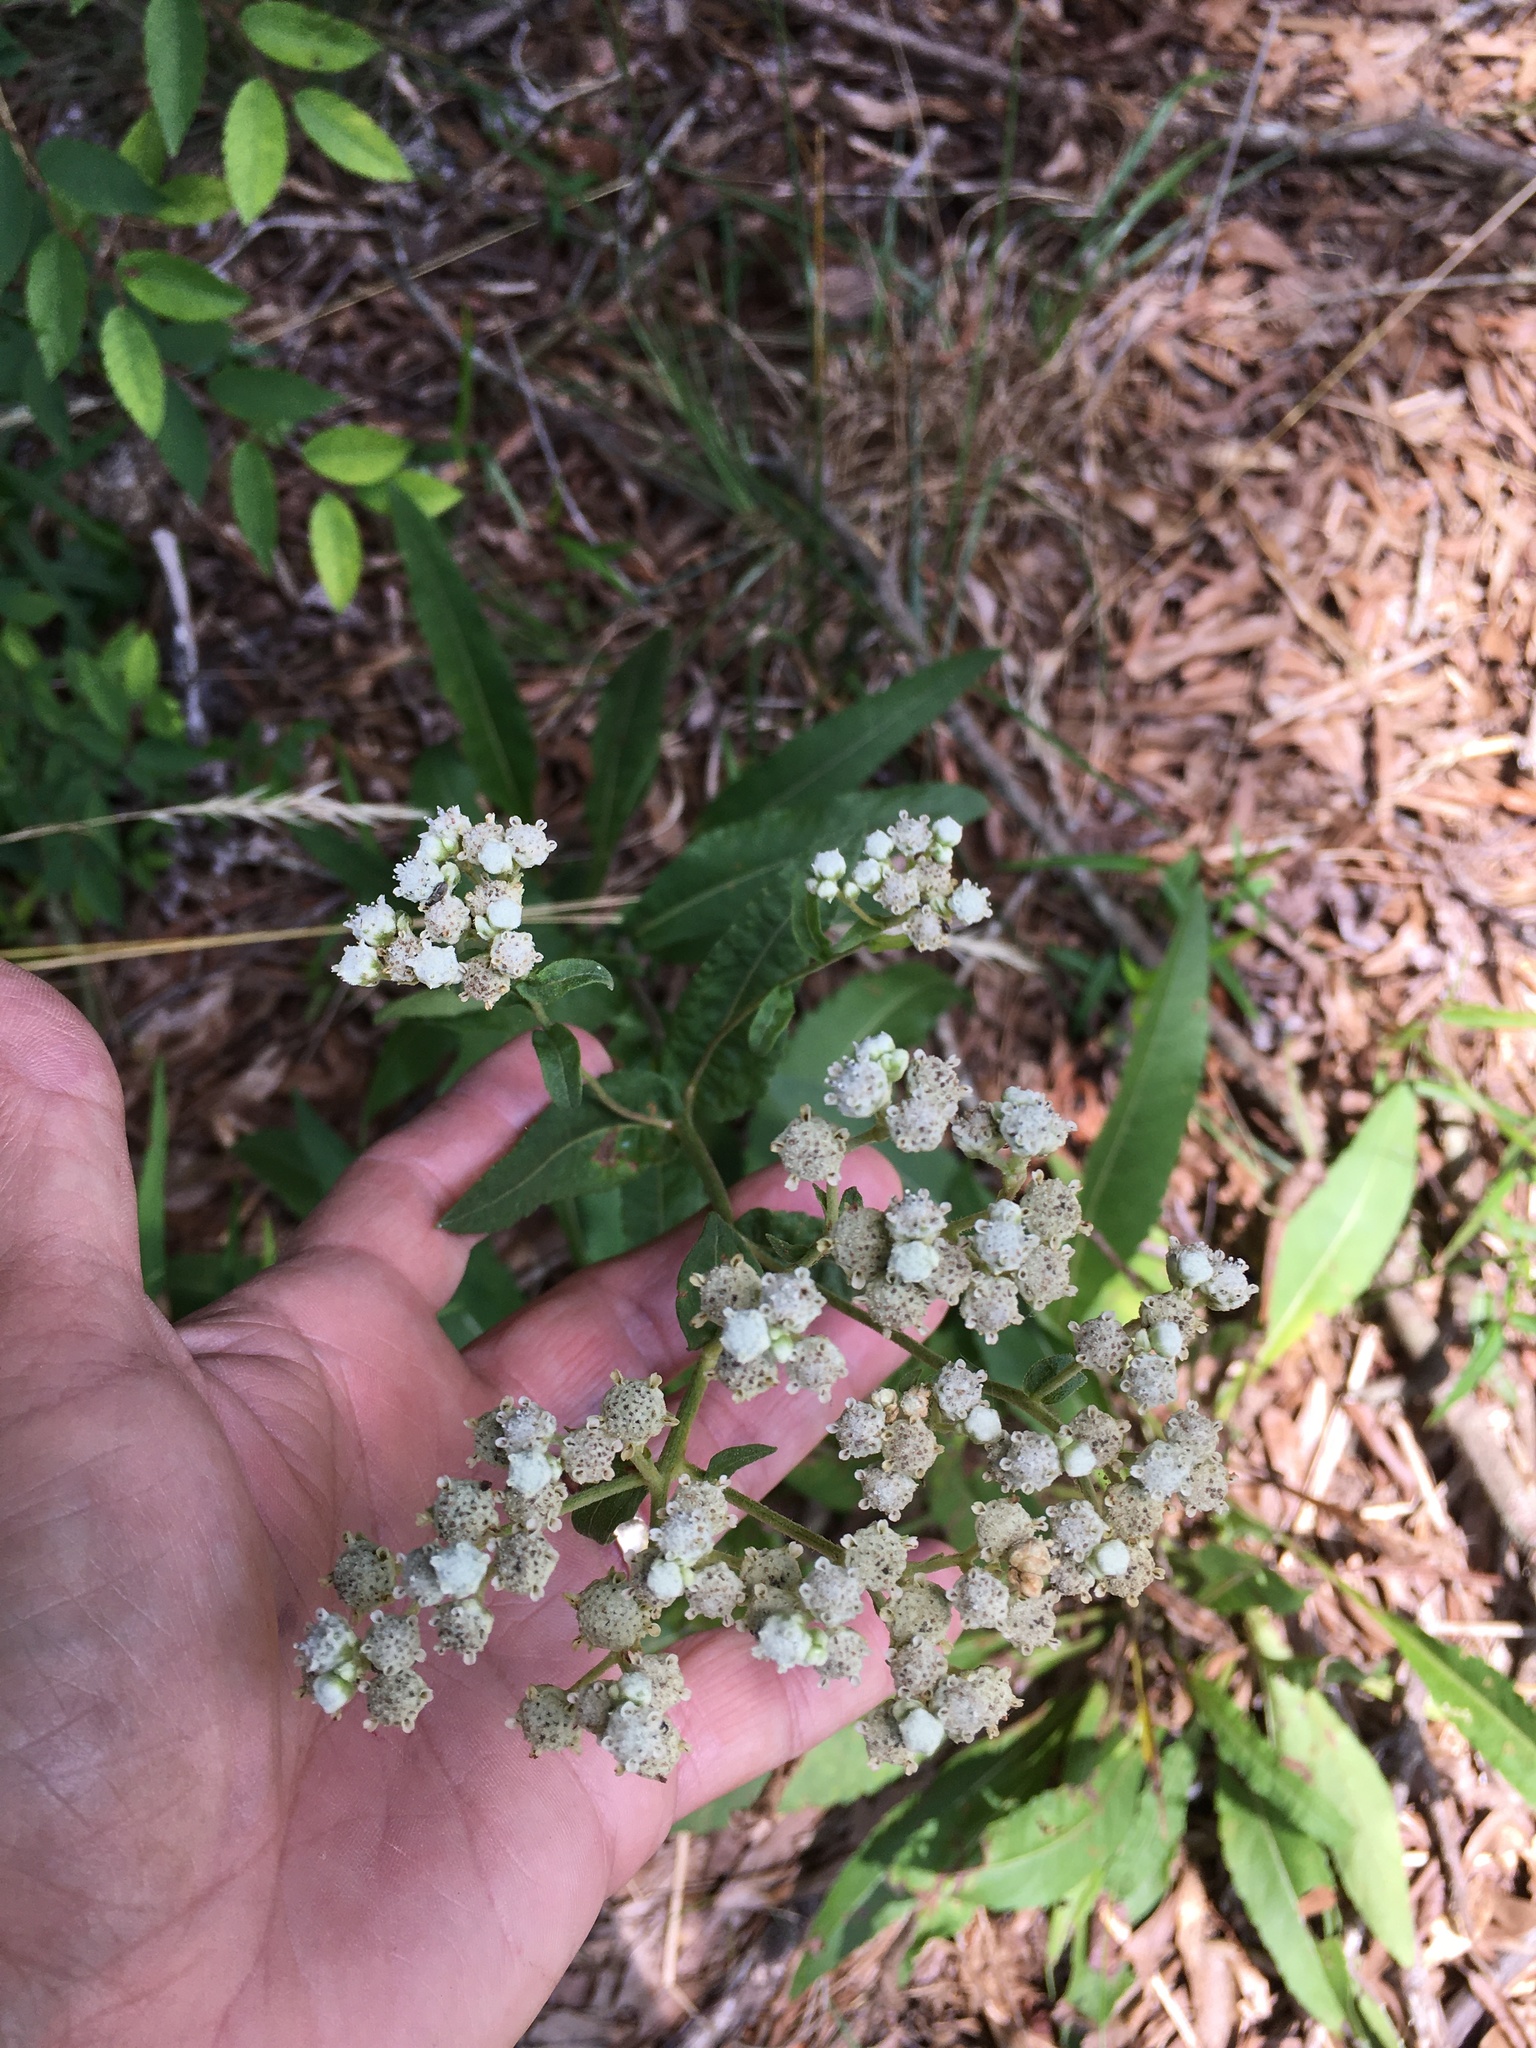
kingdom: Plantae
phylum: Tracheophyta
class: Magnoliopsida
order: Asterales
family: Asteraceae
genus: Parthenium
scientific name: Parthenium integrifolium
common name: American feverfew
